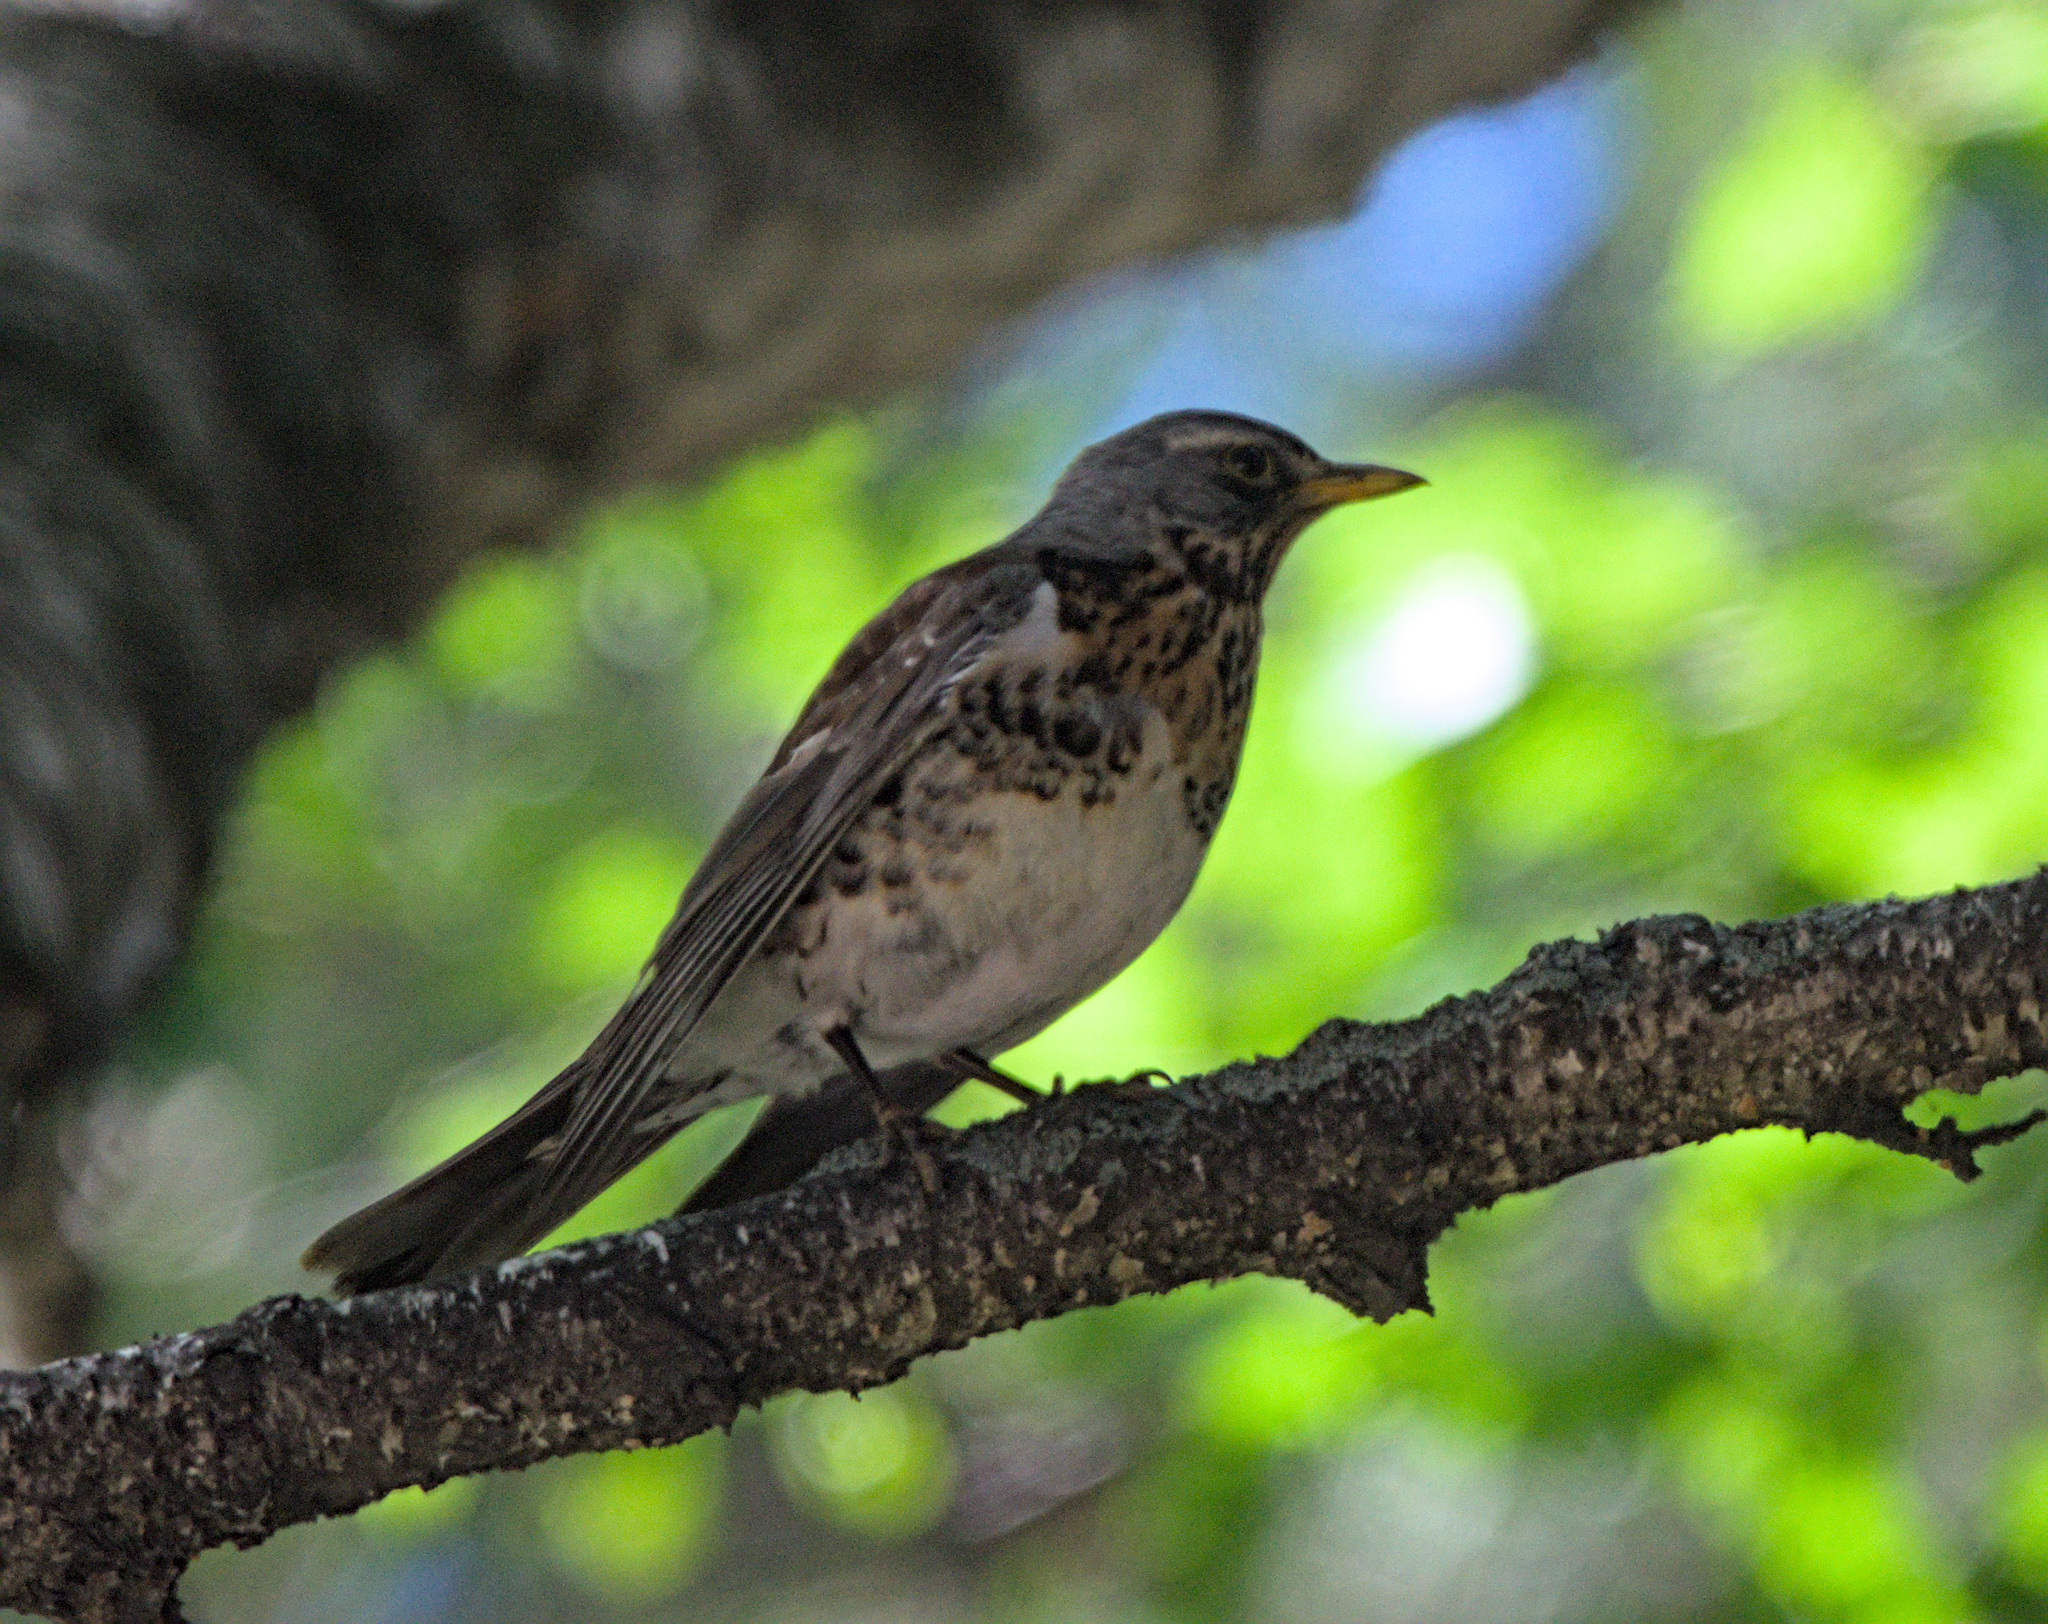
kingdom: Animalia
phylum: Chordata
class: Aves
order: Passeriformes
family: Turdidae
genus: Turdus
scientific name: Turdus pilaris
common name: Fieldfare
